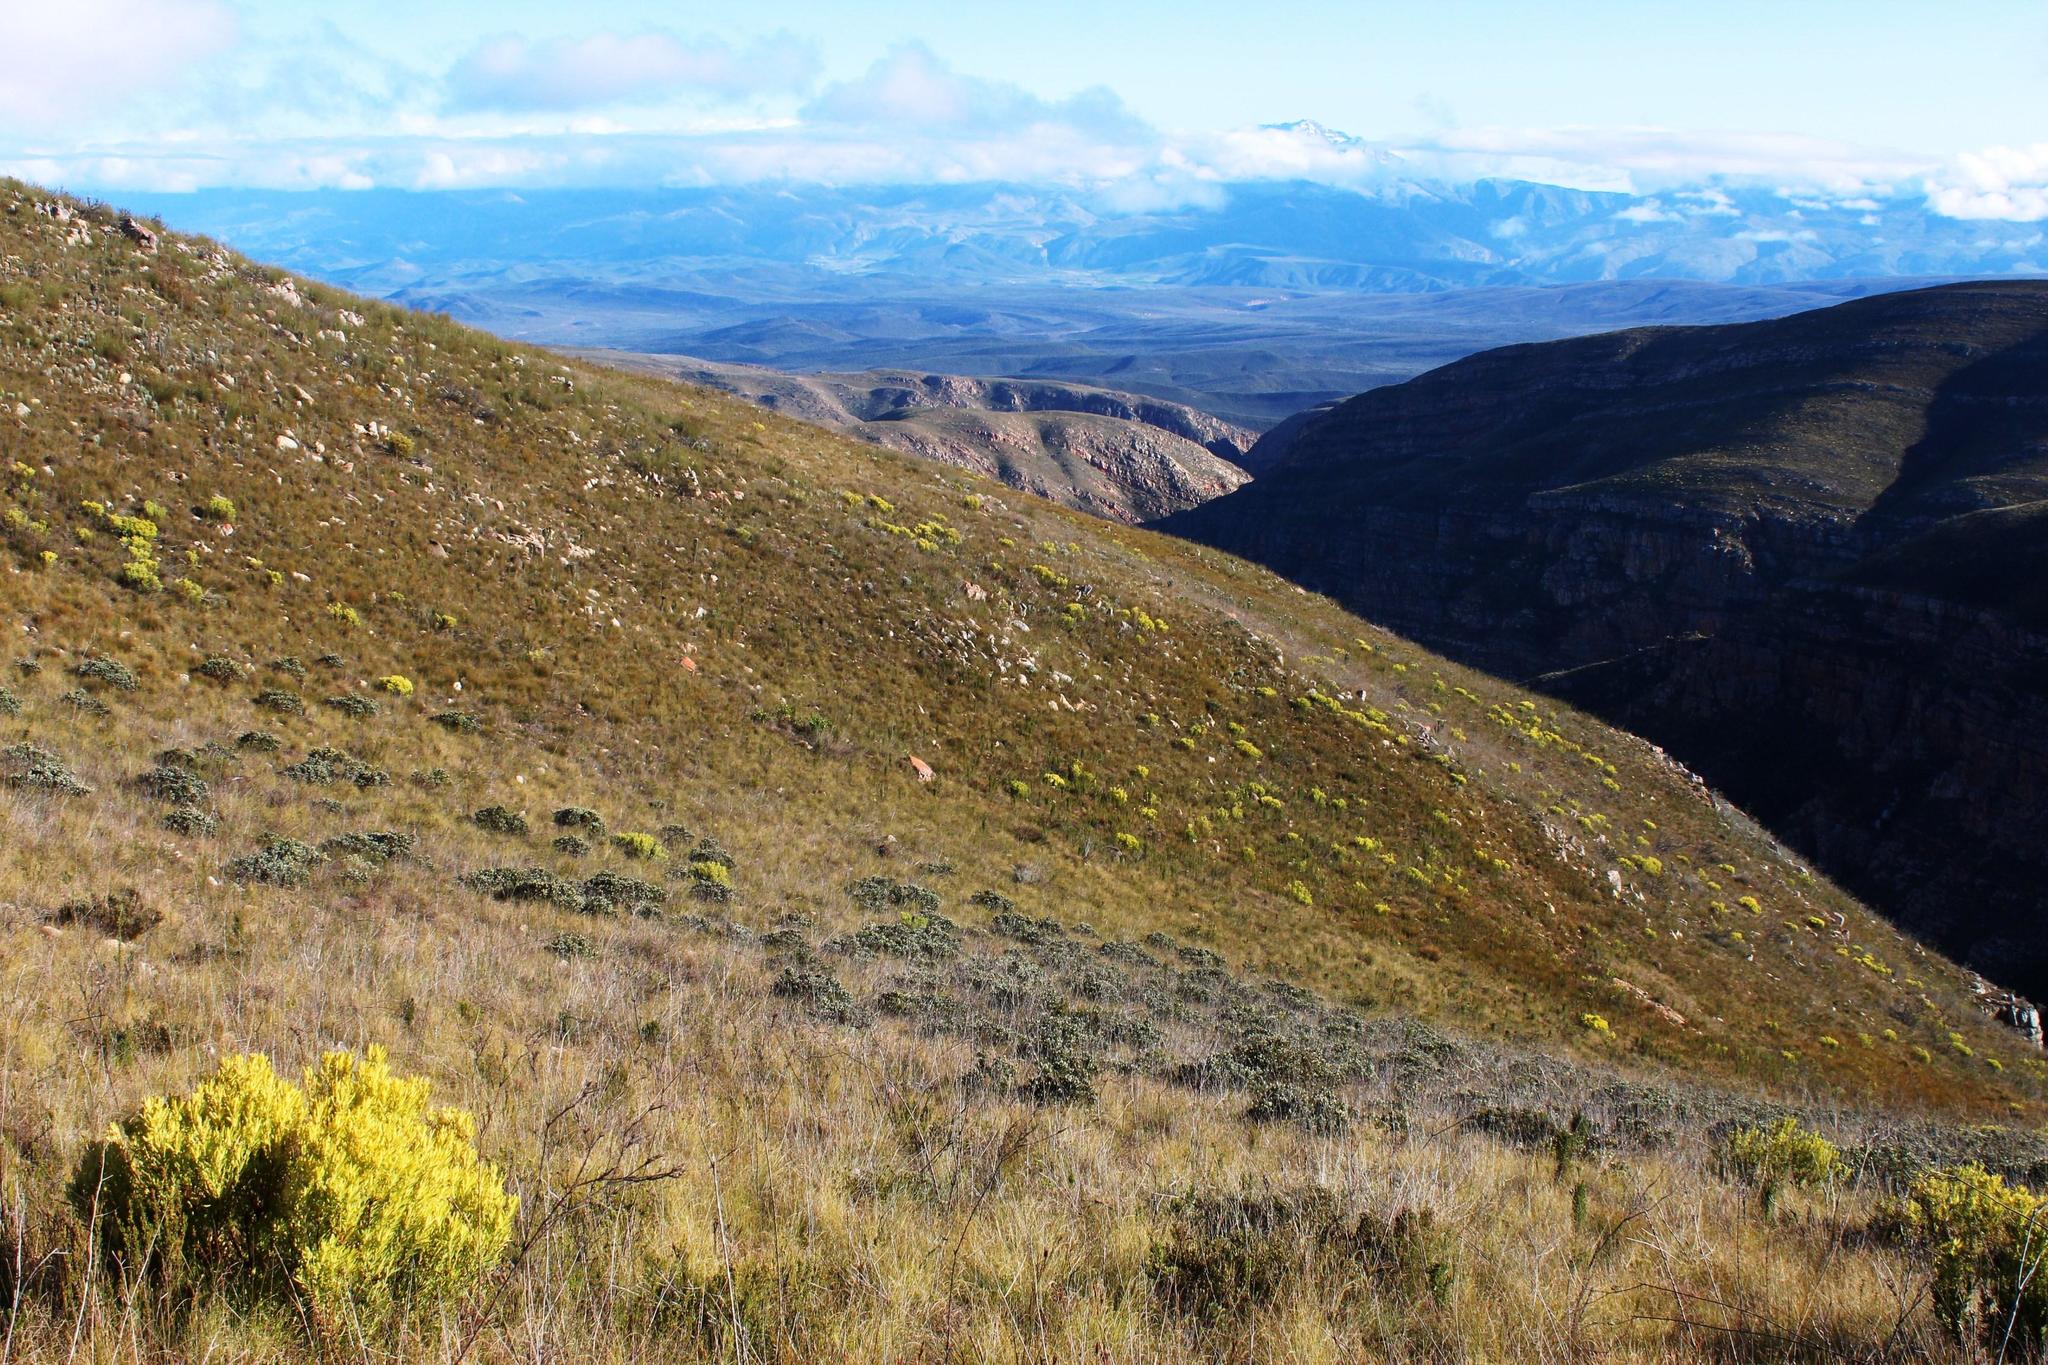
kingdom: Plantae
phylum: Tracheophyta
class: Magnoliopsida
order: Proteales
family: Proteaceae
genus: Leucadendron
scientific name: Leucadendron salignum
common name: Common sunshine conebush
